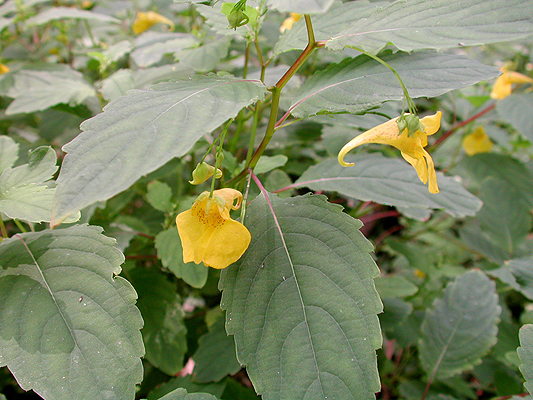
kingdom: Plantae
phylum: Tracheophyta
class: Magnoliopsida
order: Ericales
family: Balsaminaceae
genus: Impatiens
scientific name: Impatiens noli-tangere
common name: Touch-me-not balsam
